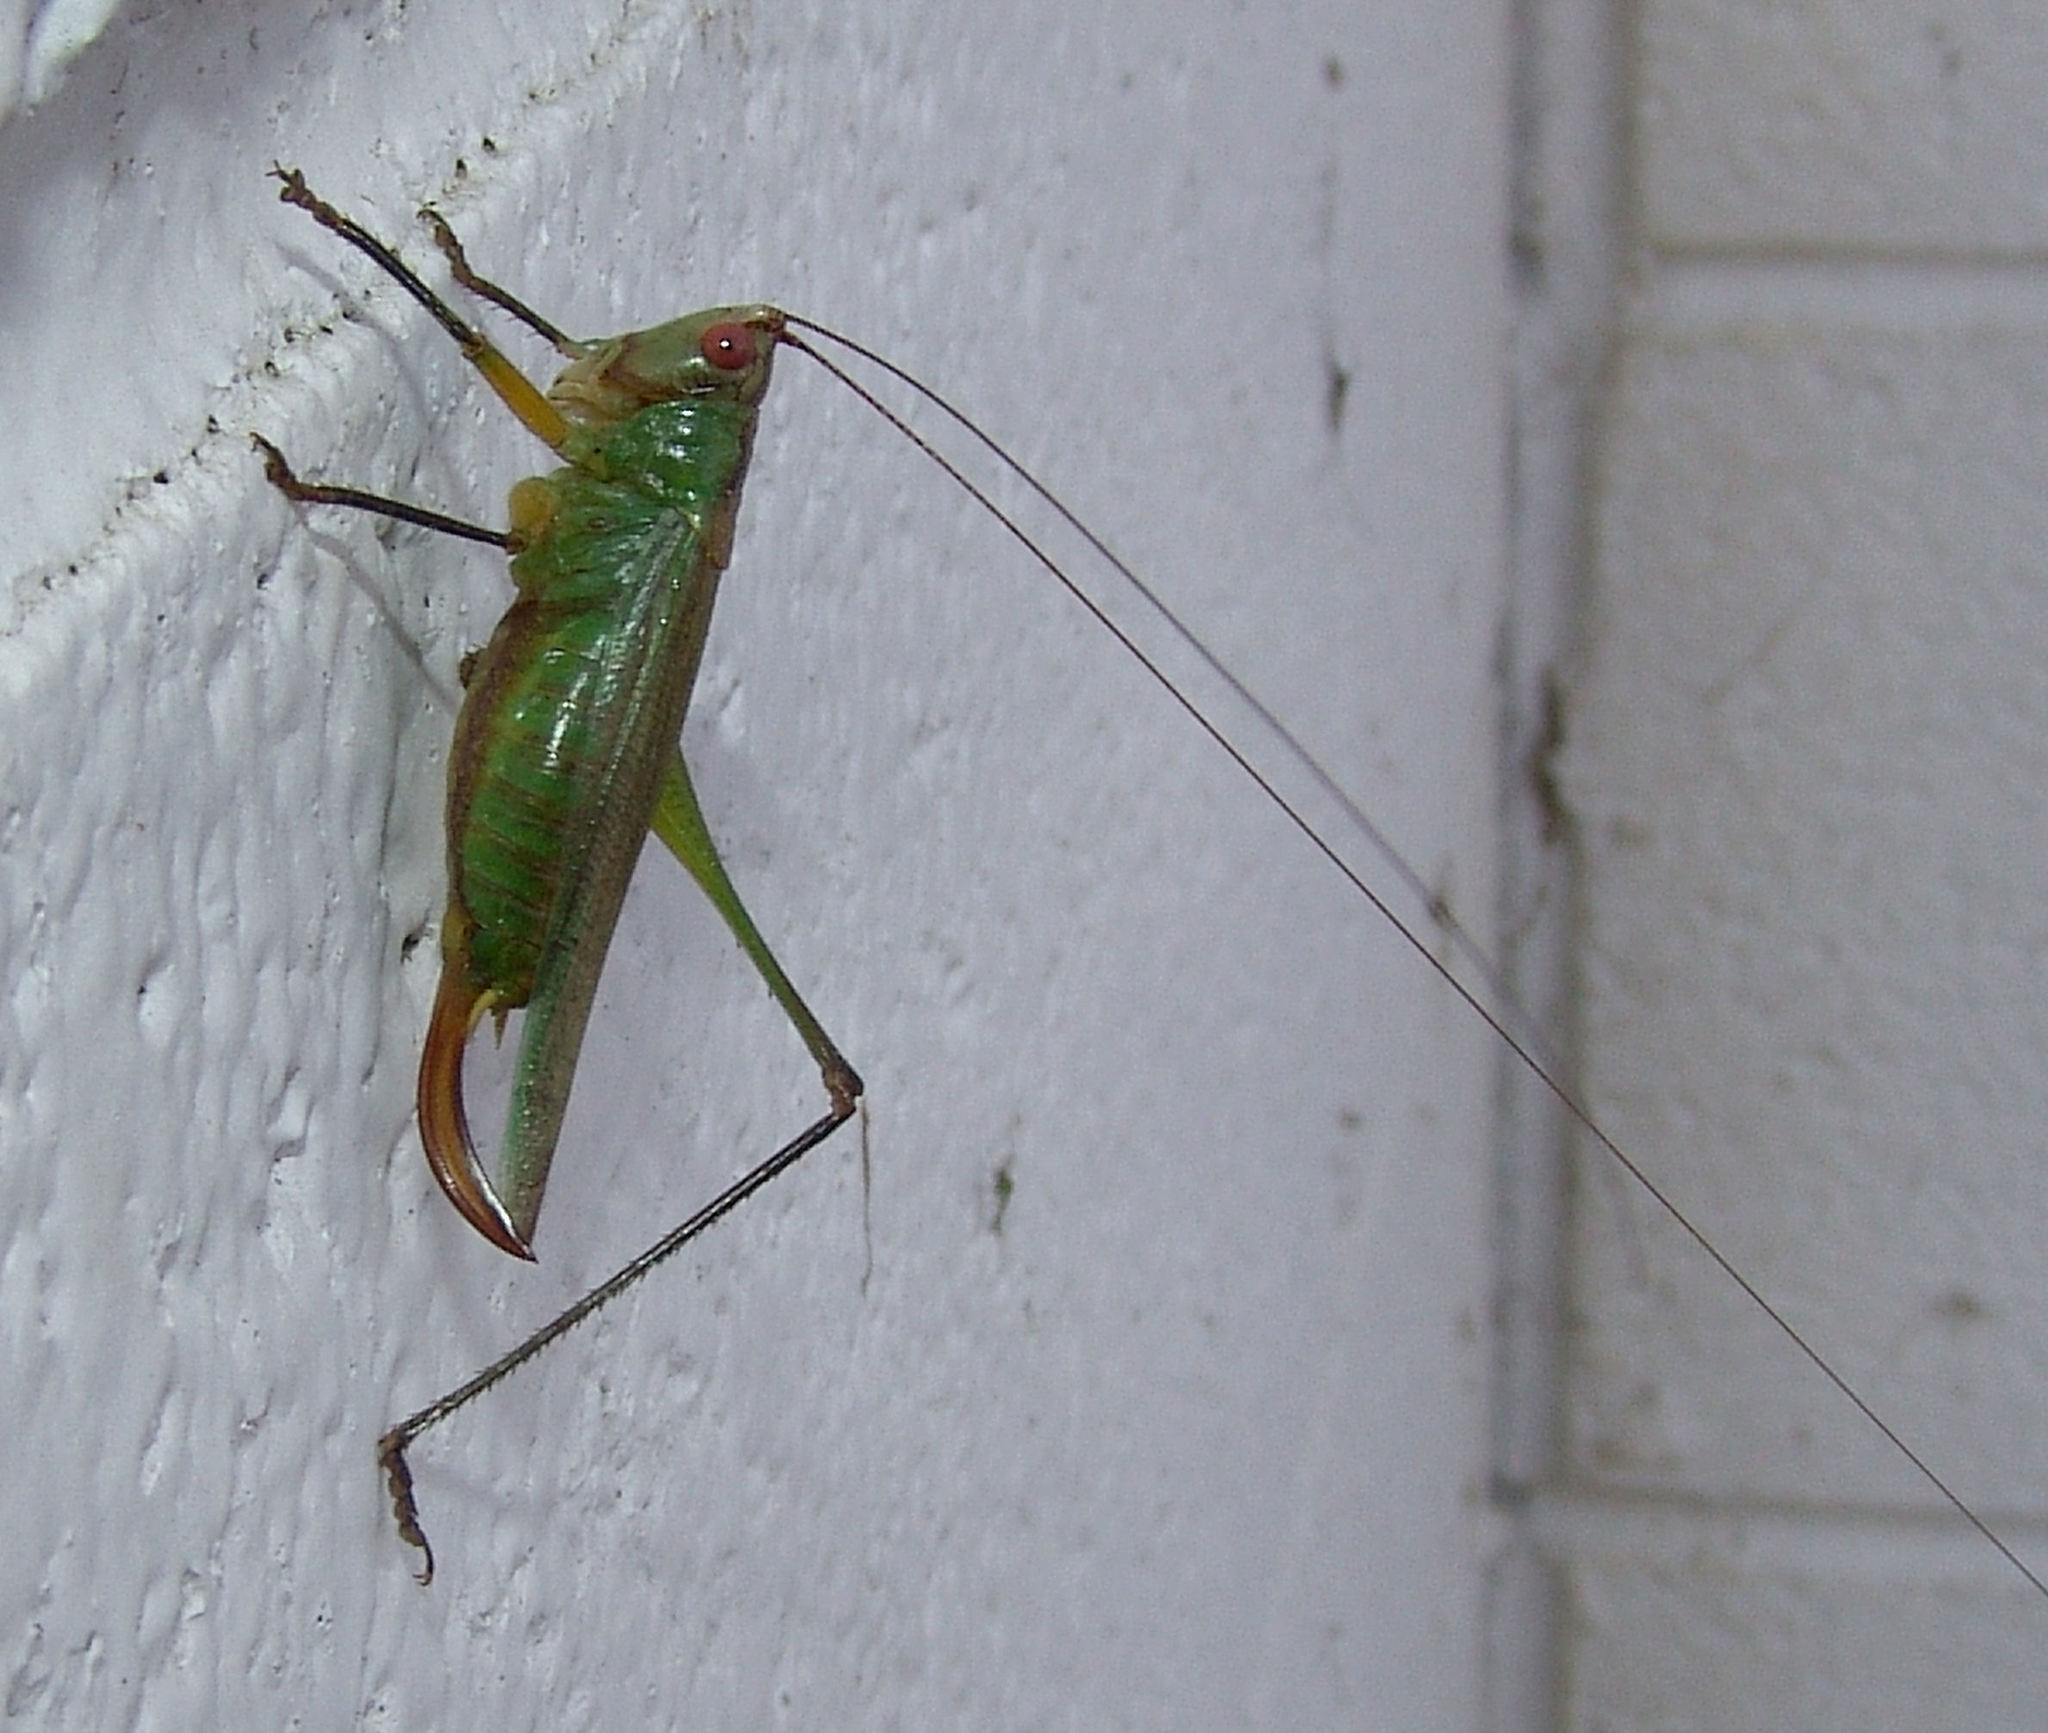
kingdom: Animalia
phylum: Arthropoda
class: Insecta
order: Orthoptera
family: Tettigoniidae
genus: Orchelimum
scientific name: Orchelimum nigripes
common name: Black-legged meadow katydid
